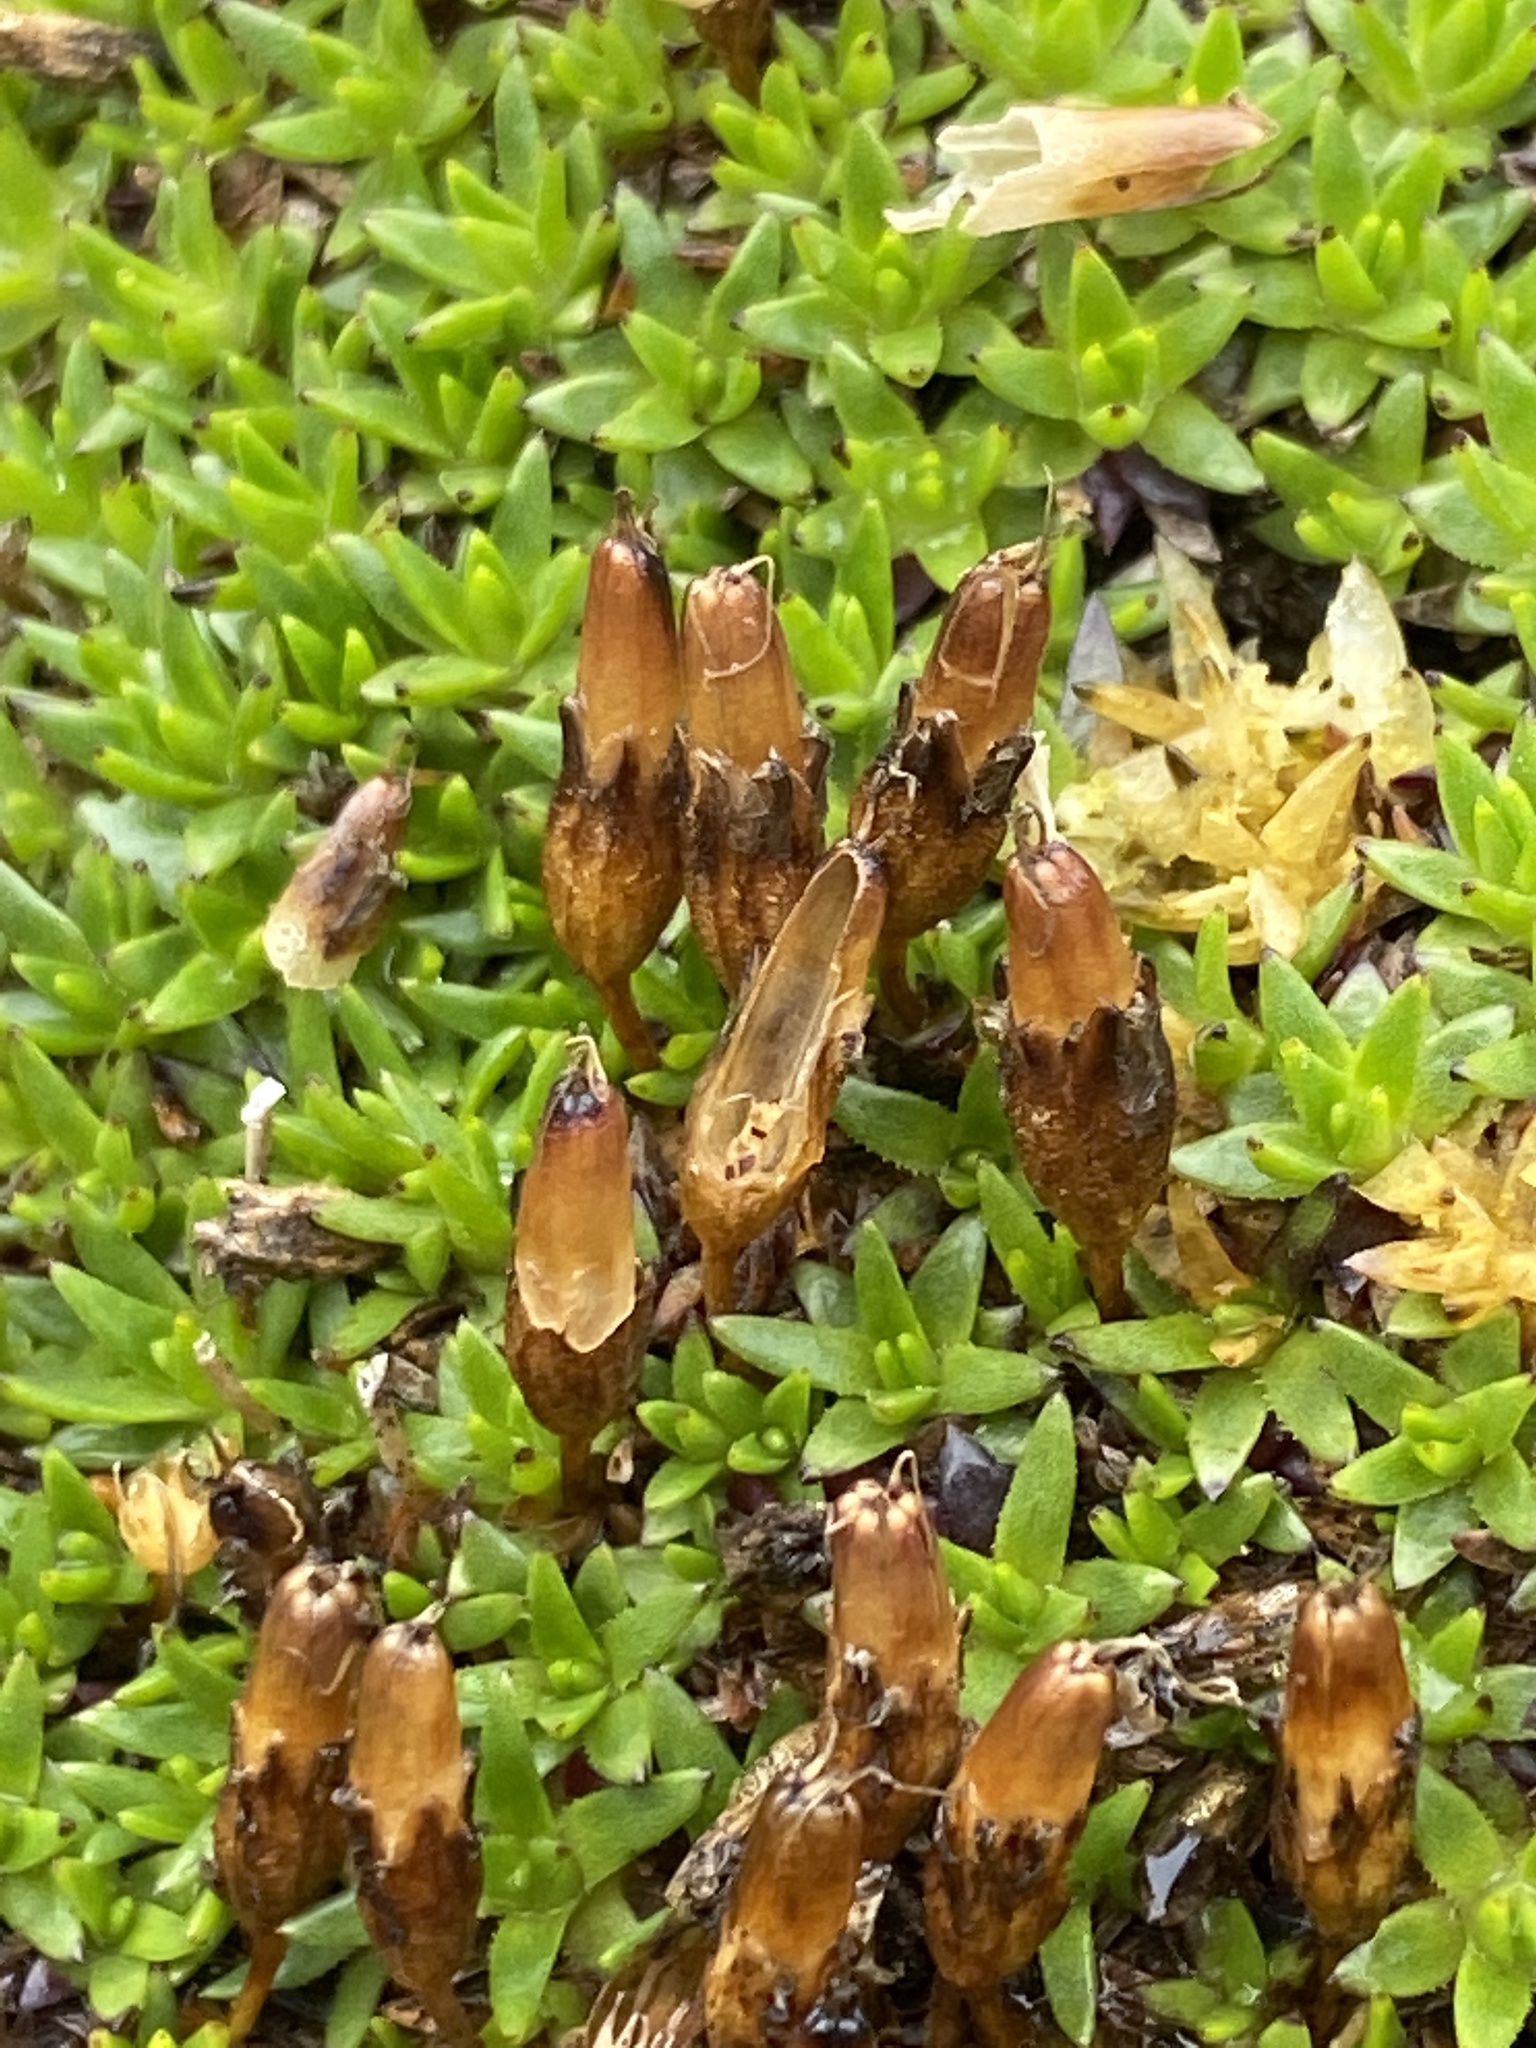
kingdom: Plantae
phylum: Tracheophyta
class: Magnoliopsida
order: Caryophyllales
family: Caryophyllaceae
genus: Silene
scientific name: Silene acaulis
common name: Moss campion
